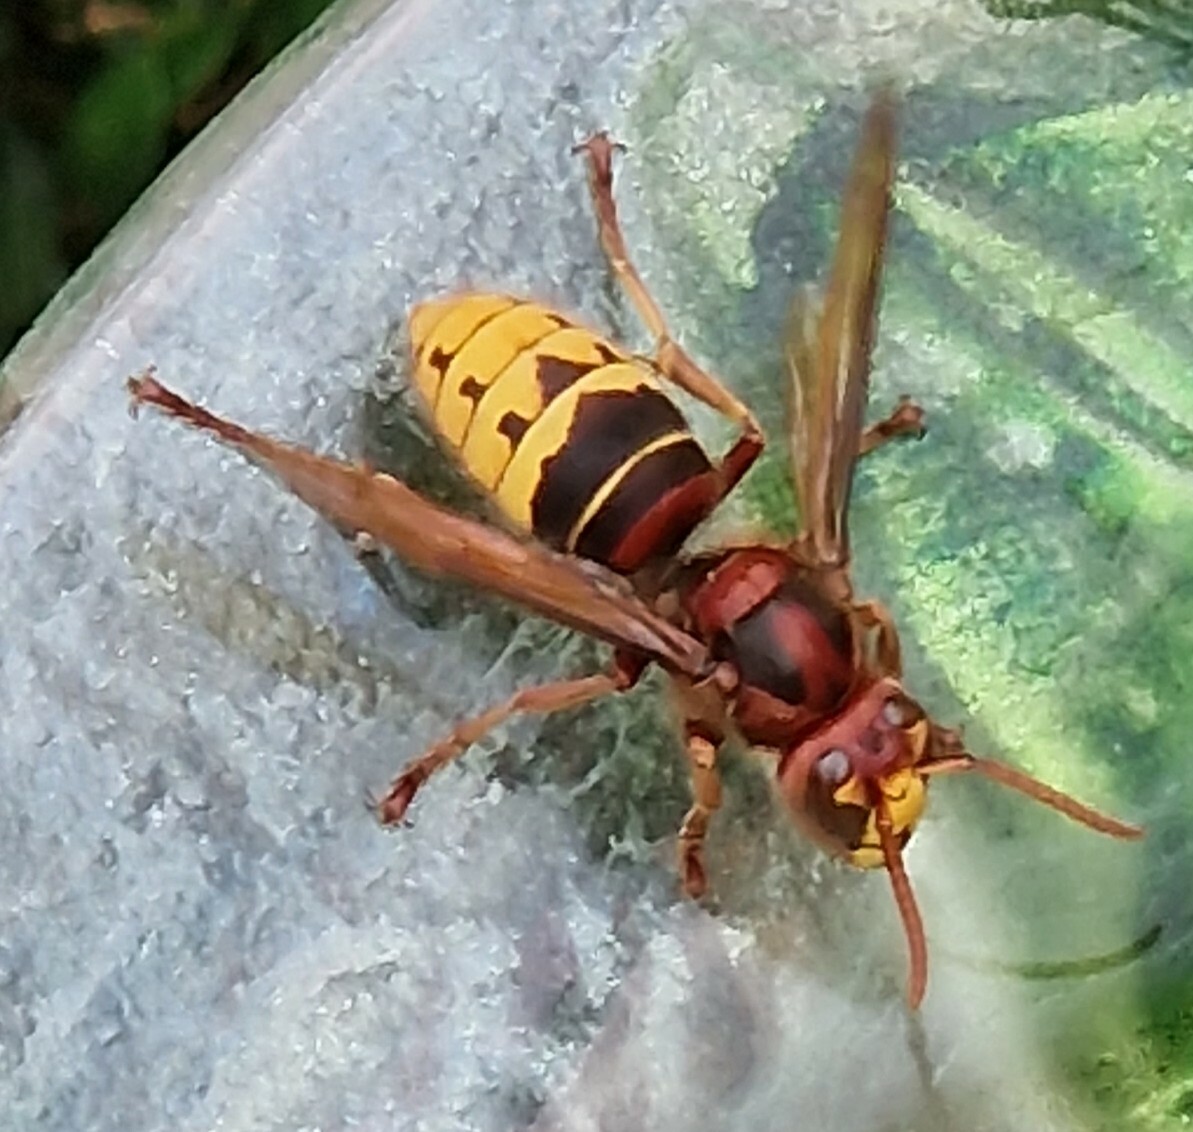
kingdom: Animalia
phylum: Arthropoda
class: Insecta
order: Hymenoptera
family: Vespidae
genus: Vespa
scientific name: Vespa crabro
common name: Hornet
